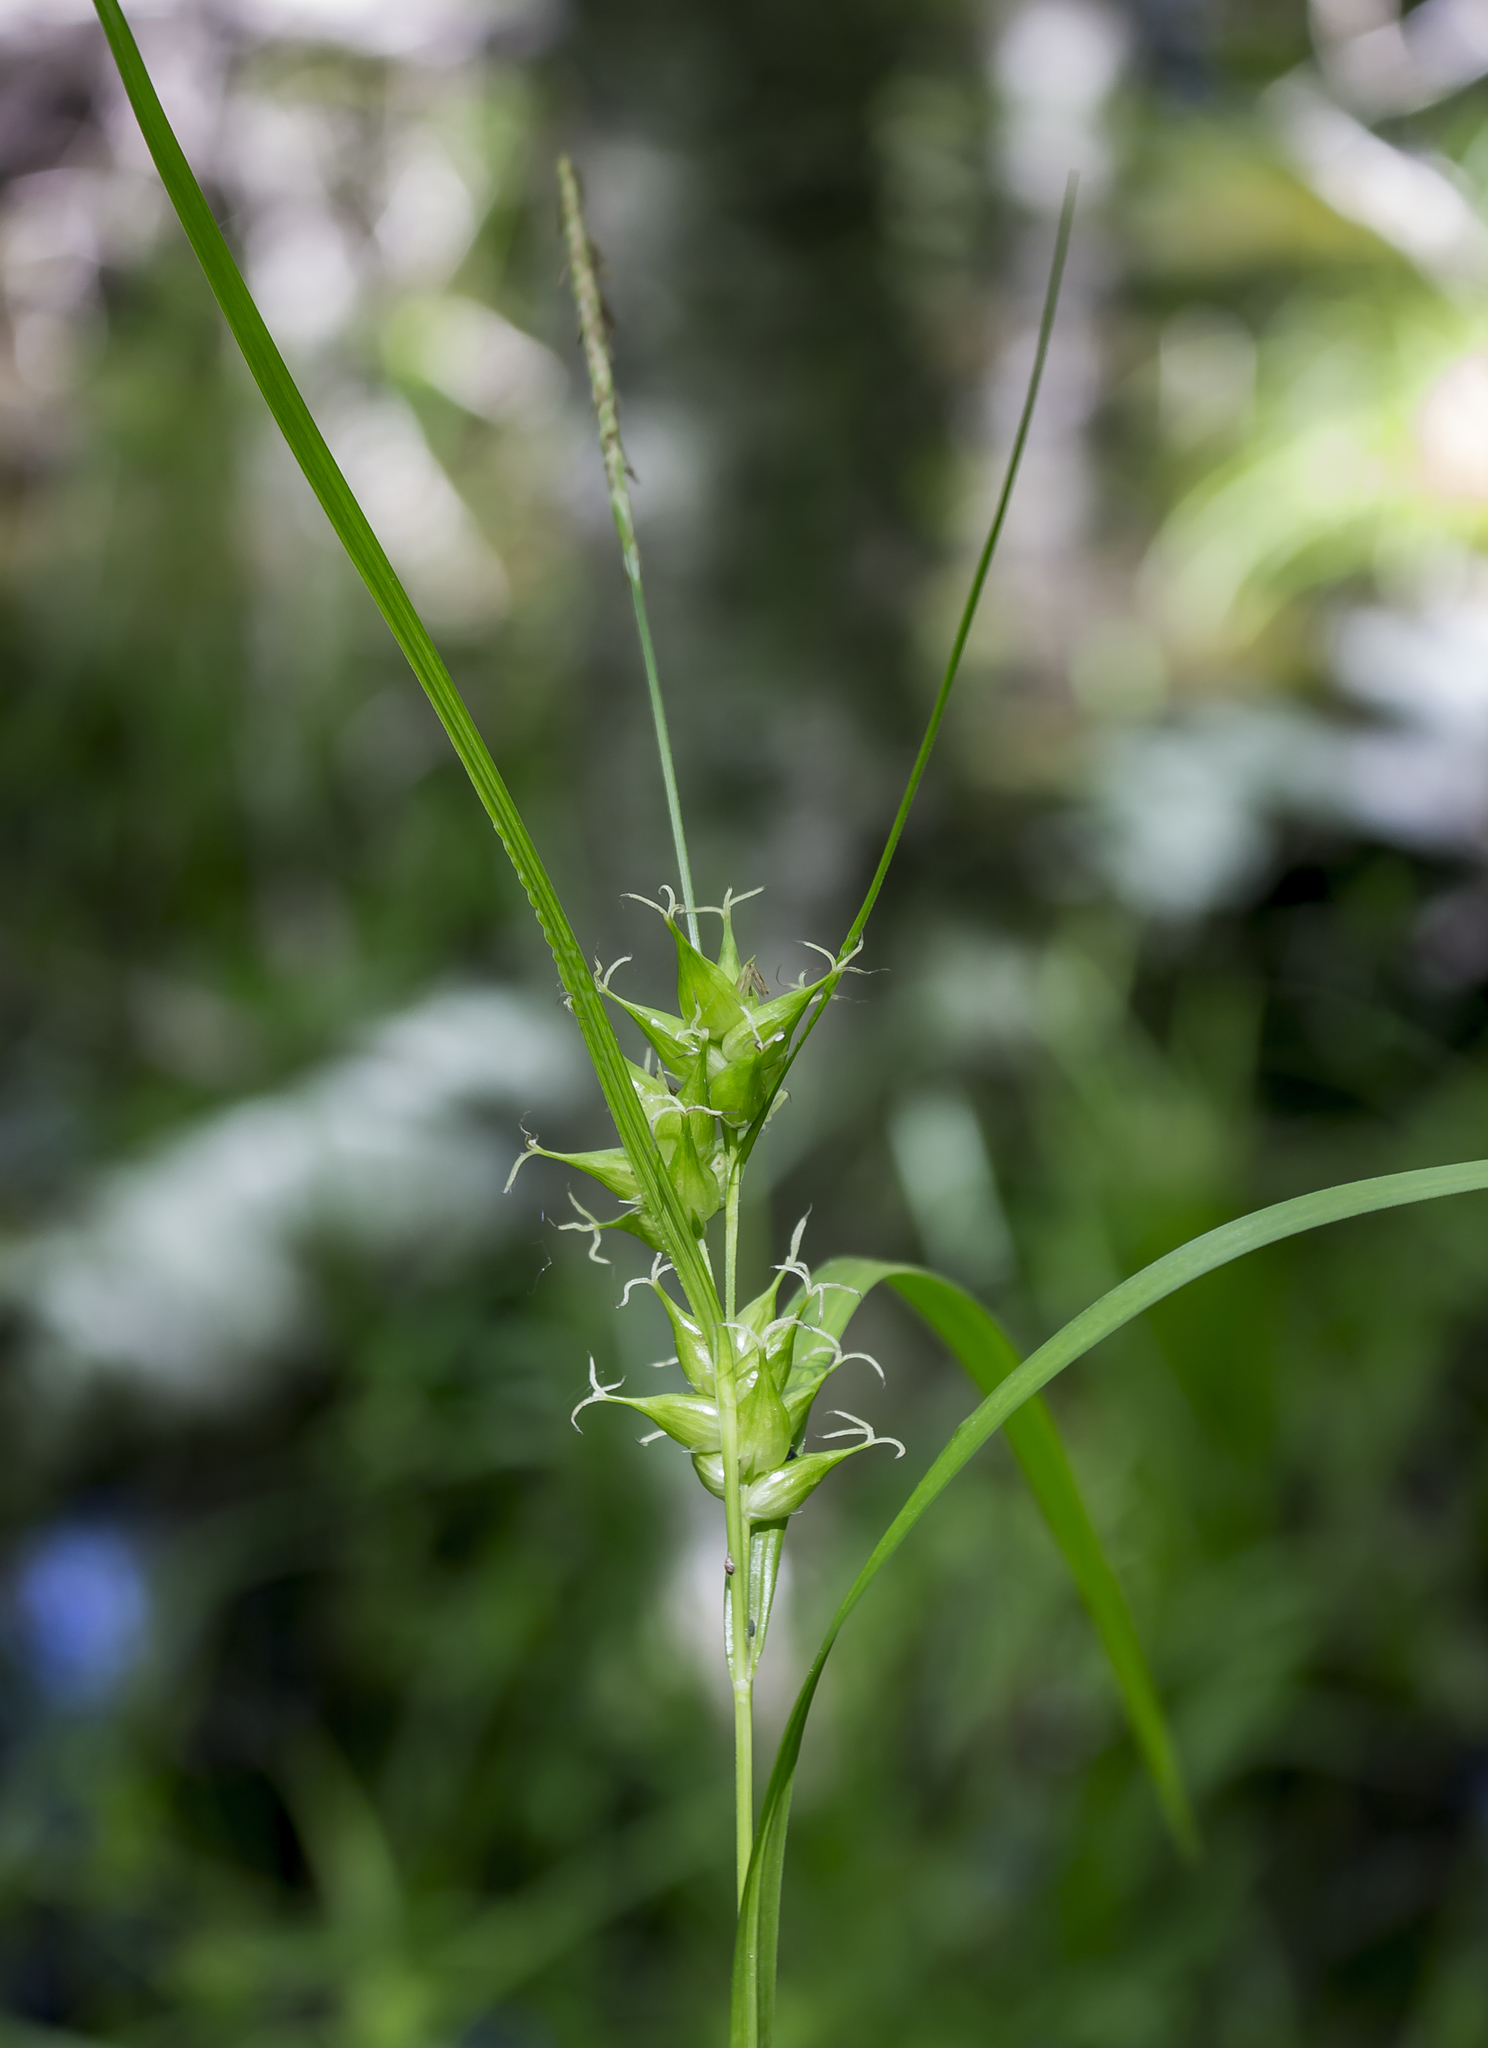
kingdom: Plantae
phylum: Tracheophyta
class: Liliopsida
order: Poales
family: Cyperaceae
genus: Carex
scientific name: Carex intumescens
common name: Greater bladder sedge
